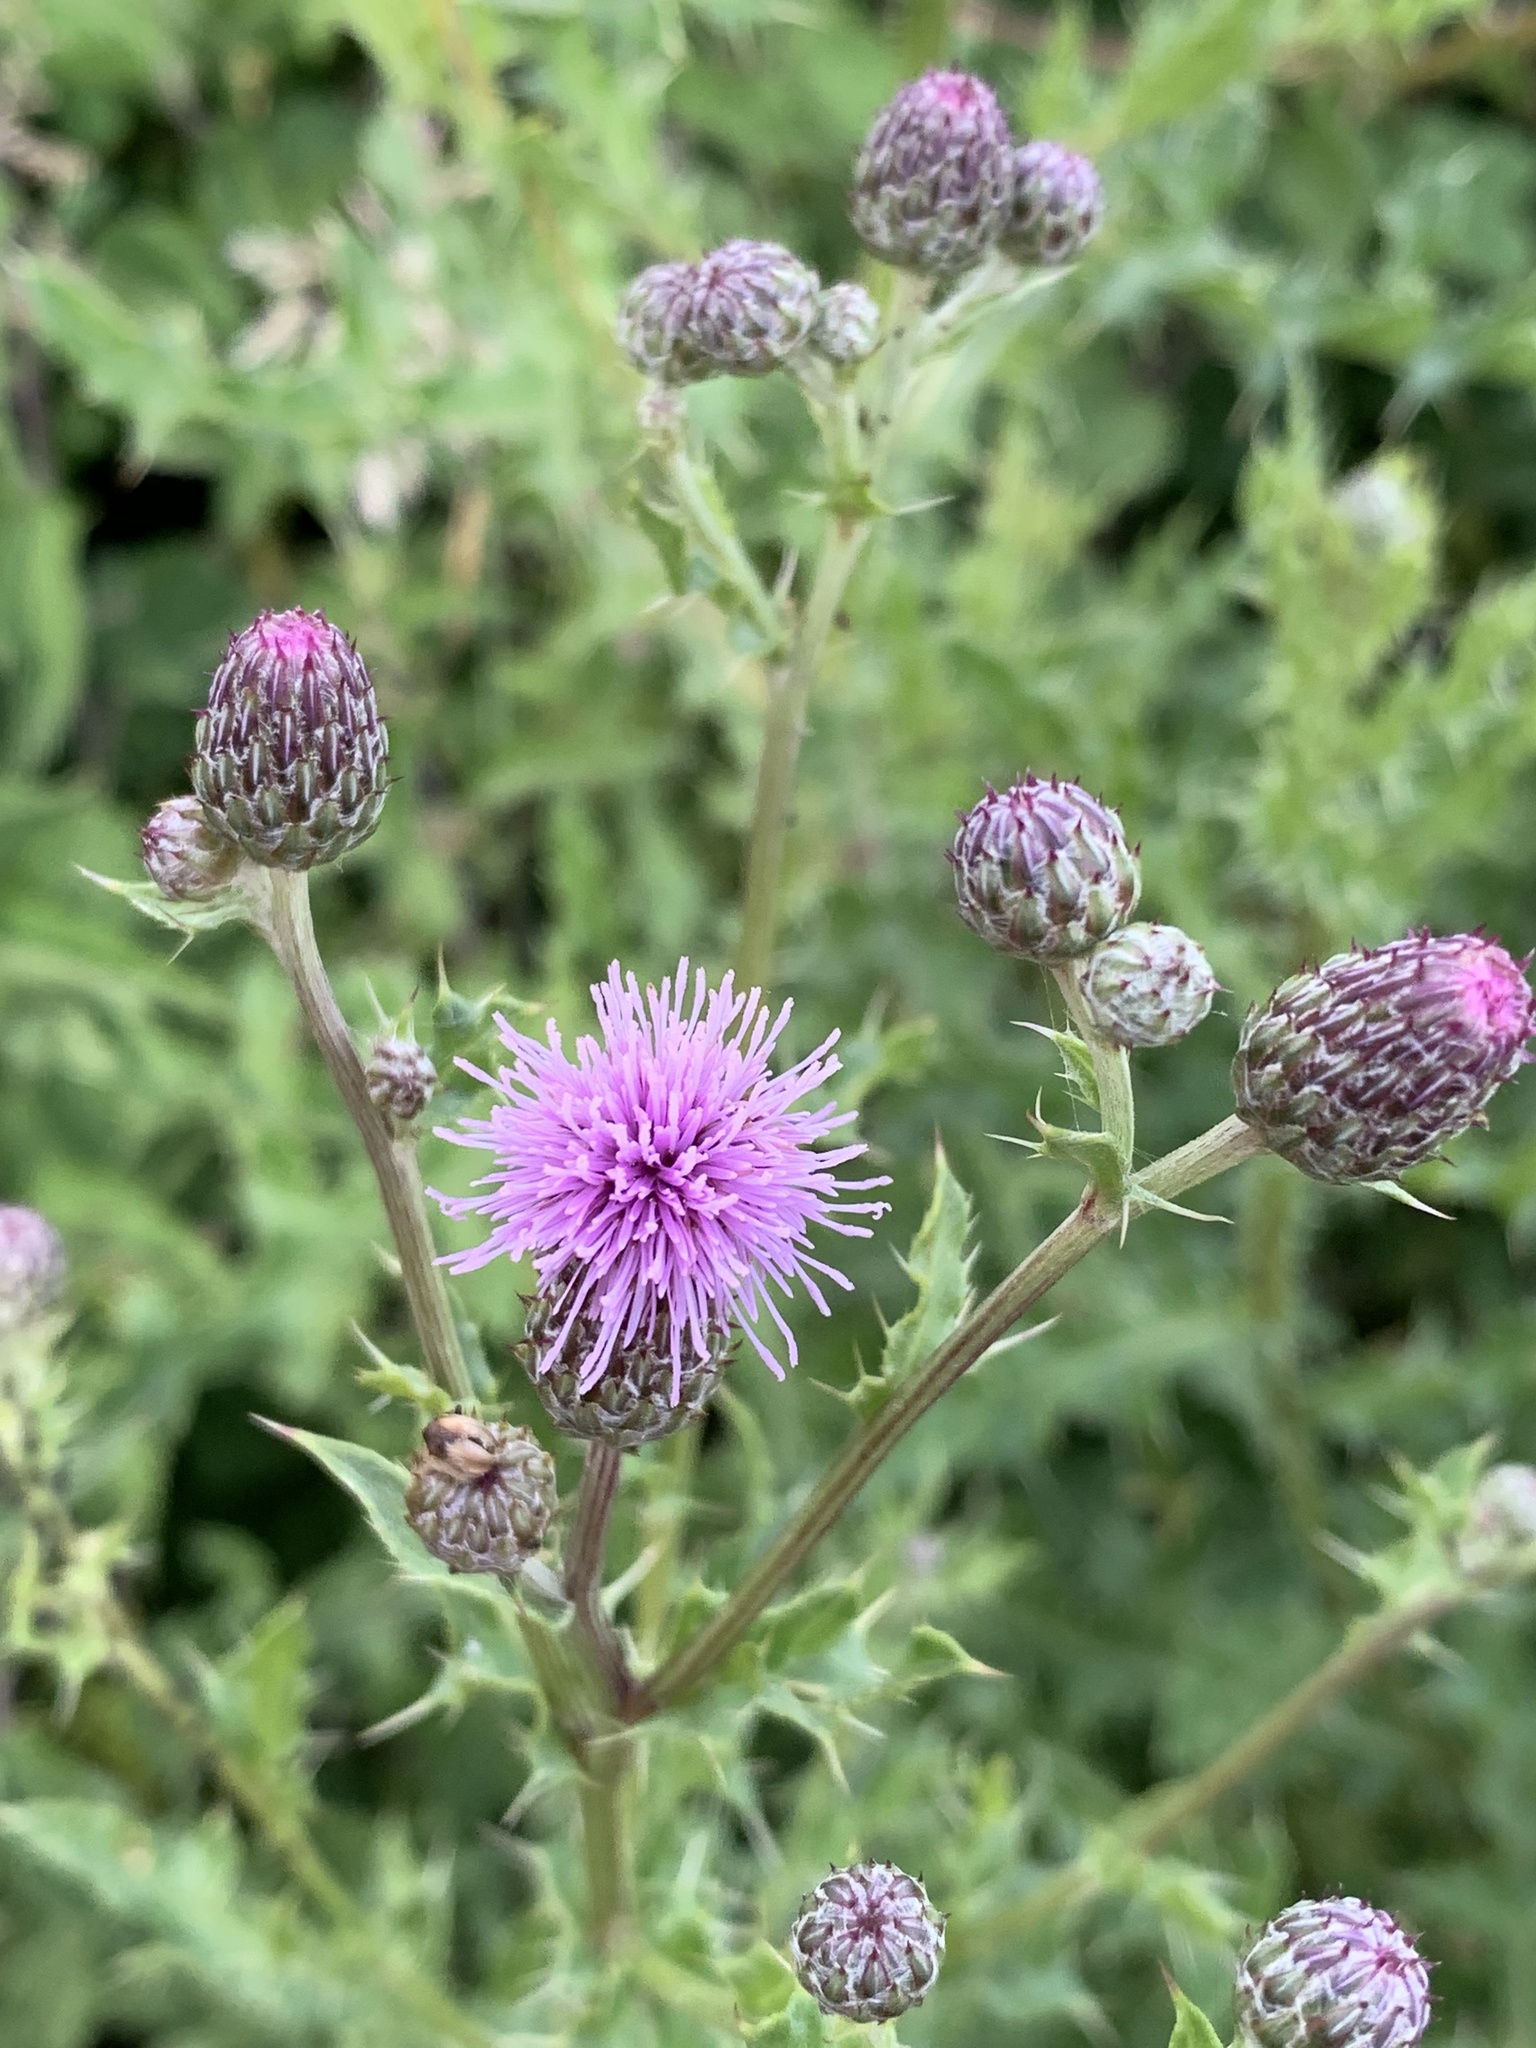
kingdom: Plantae
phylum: Tracheophyta
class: Magnoliopsida
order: Asterales
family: Asteraceae
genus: Cirsium
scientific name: Cirsium arvense
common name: Creeping thistle
